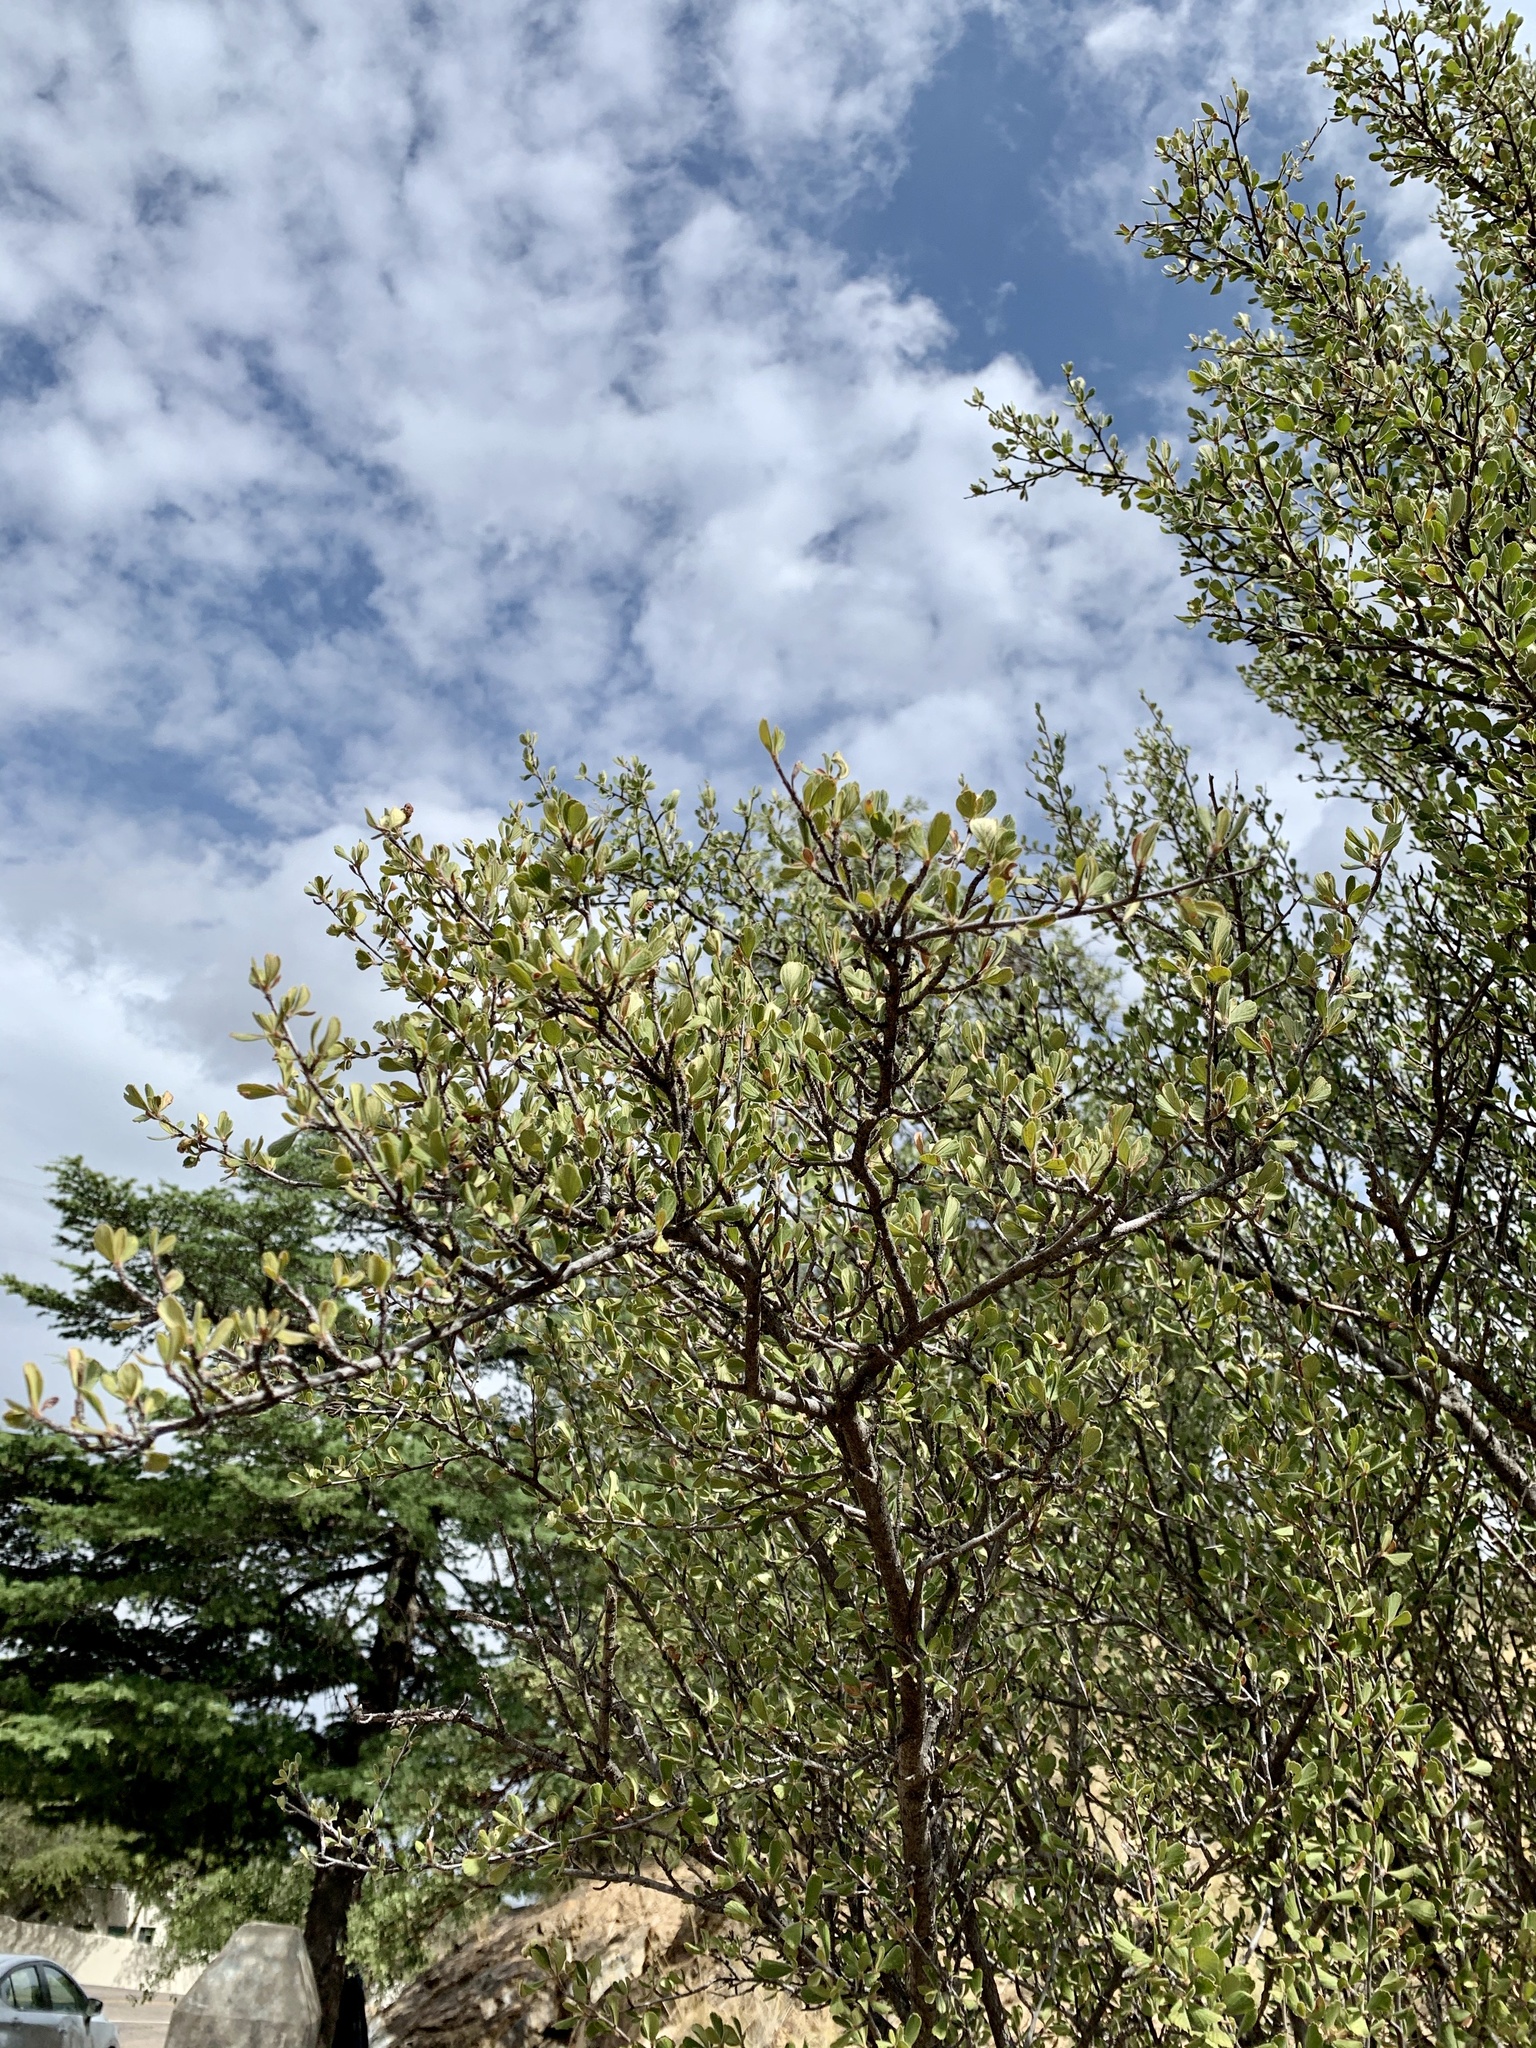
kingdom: Plantae
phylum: Tracheophyta
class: Magnoliopsida
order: Rosales
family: Rosaceae
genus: Cercocarpus
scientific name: Cercocarpus montanus
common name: Alder-leaf cercocarpus
